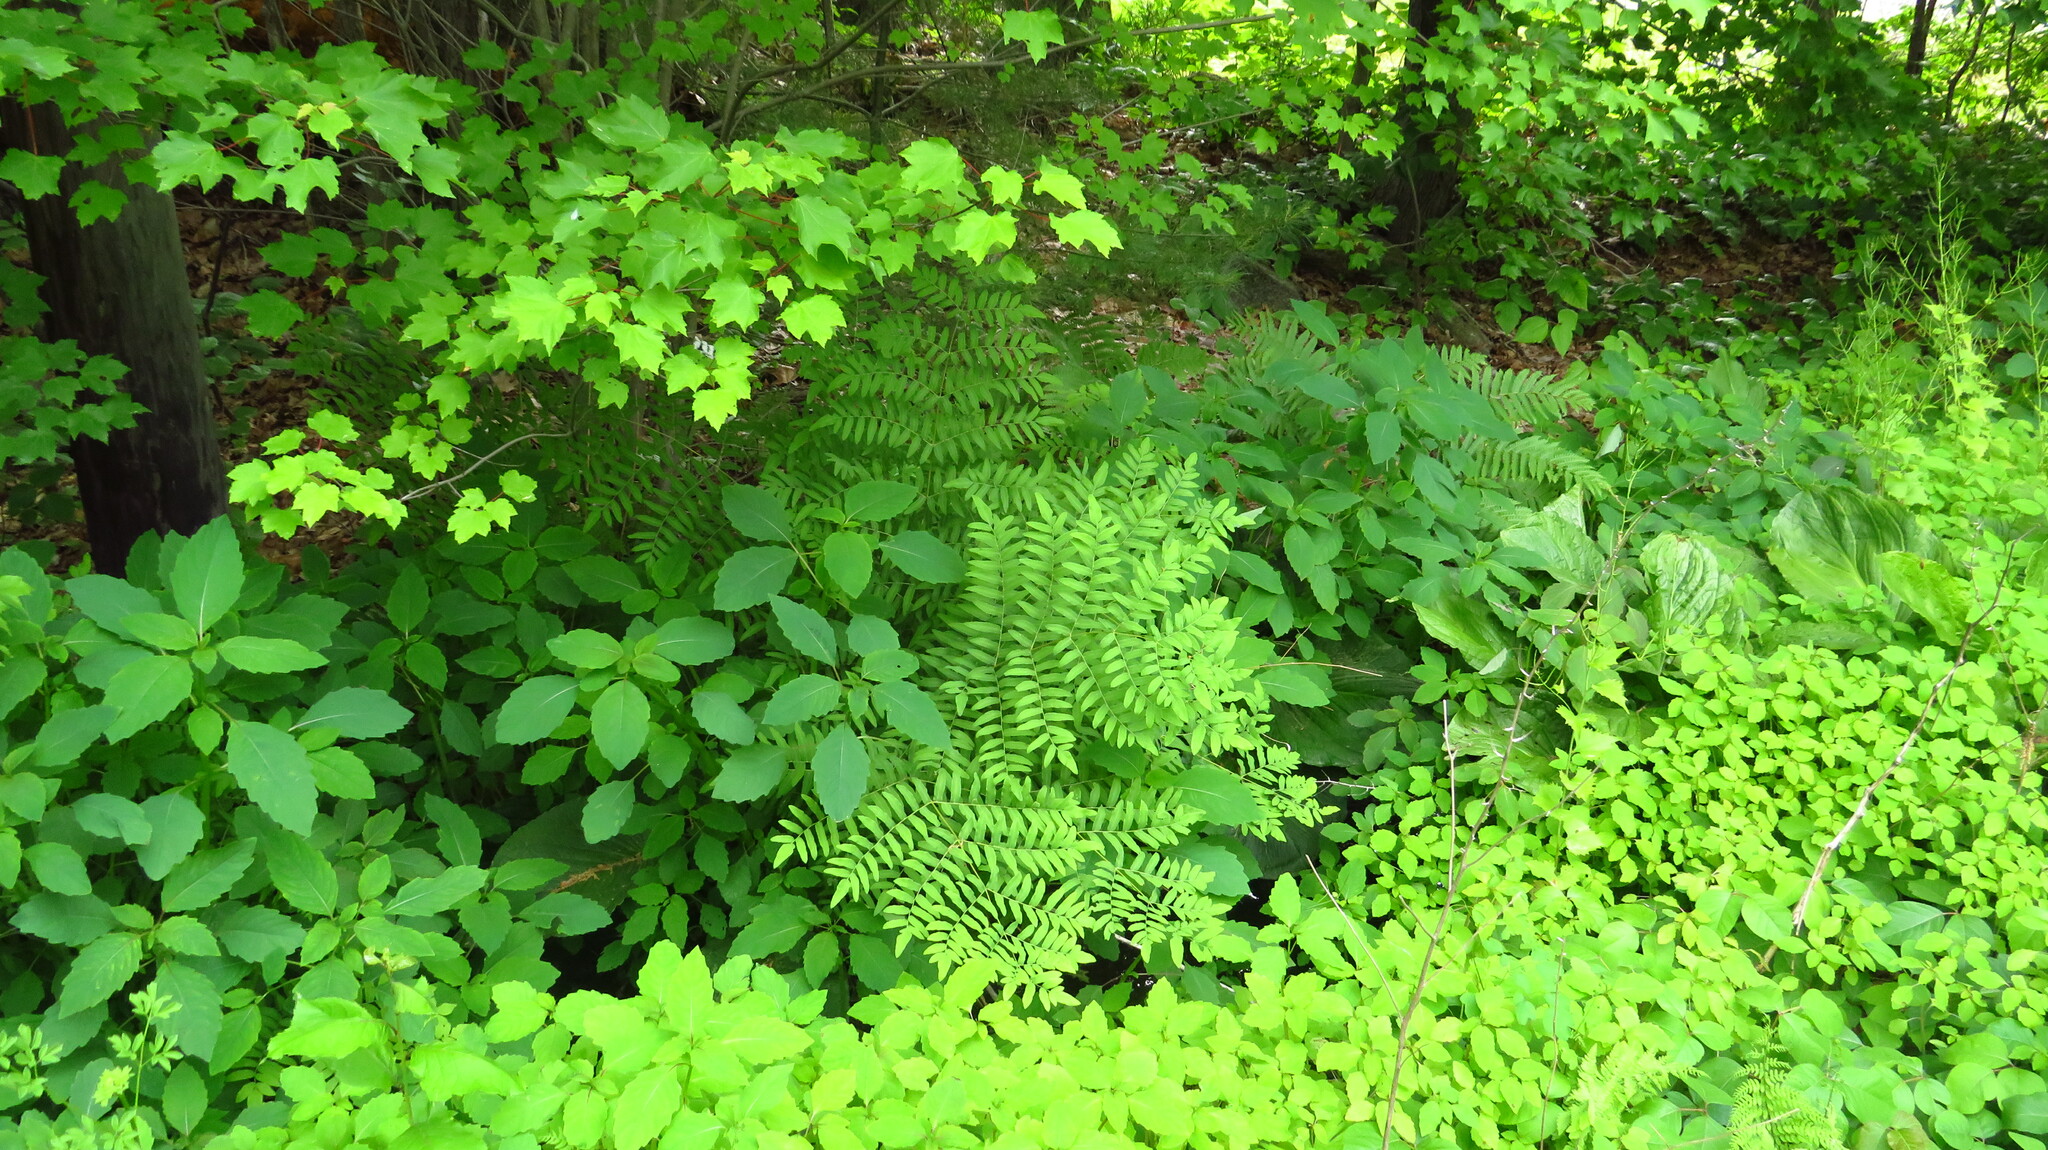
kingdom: Plantae
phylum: Tracheophyta
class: Polypodiopsida
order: Osmundales
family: Osmundaceae
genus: Osmunda
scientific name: Osmunda spectabilis
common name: American royal fern
